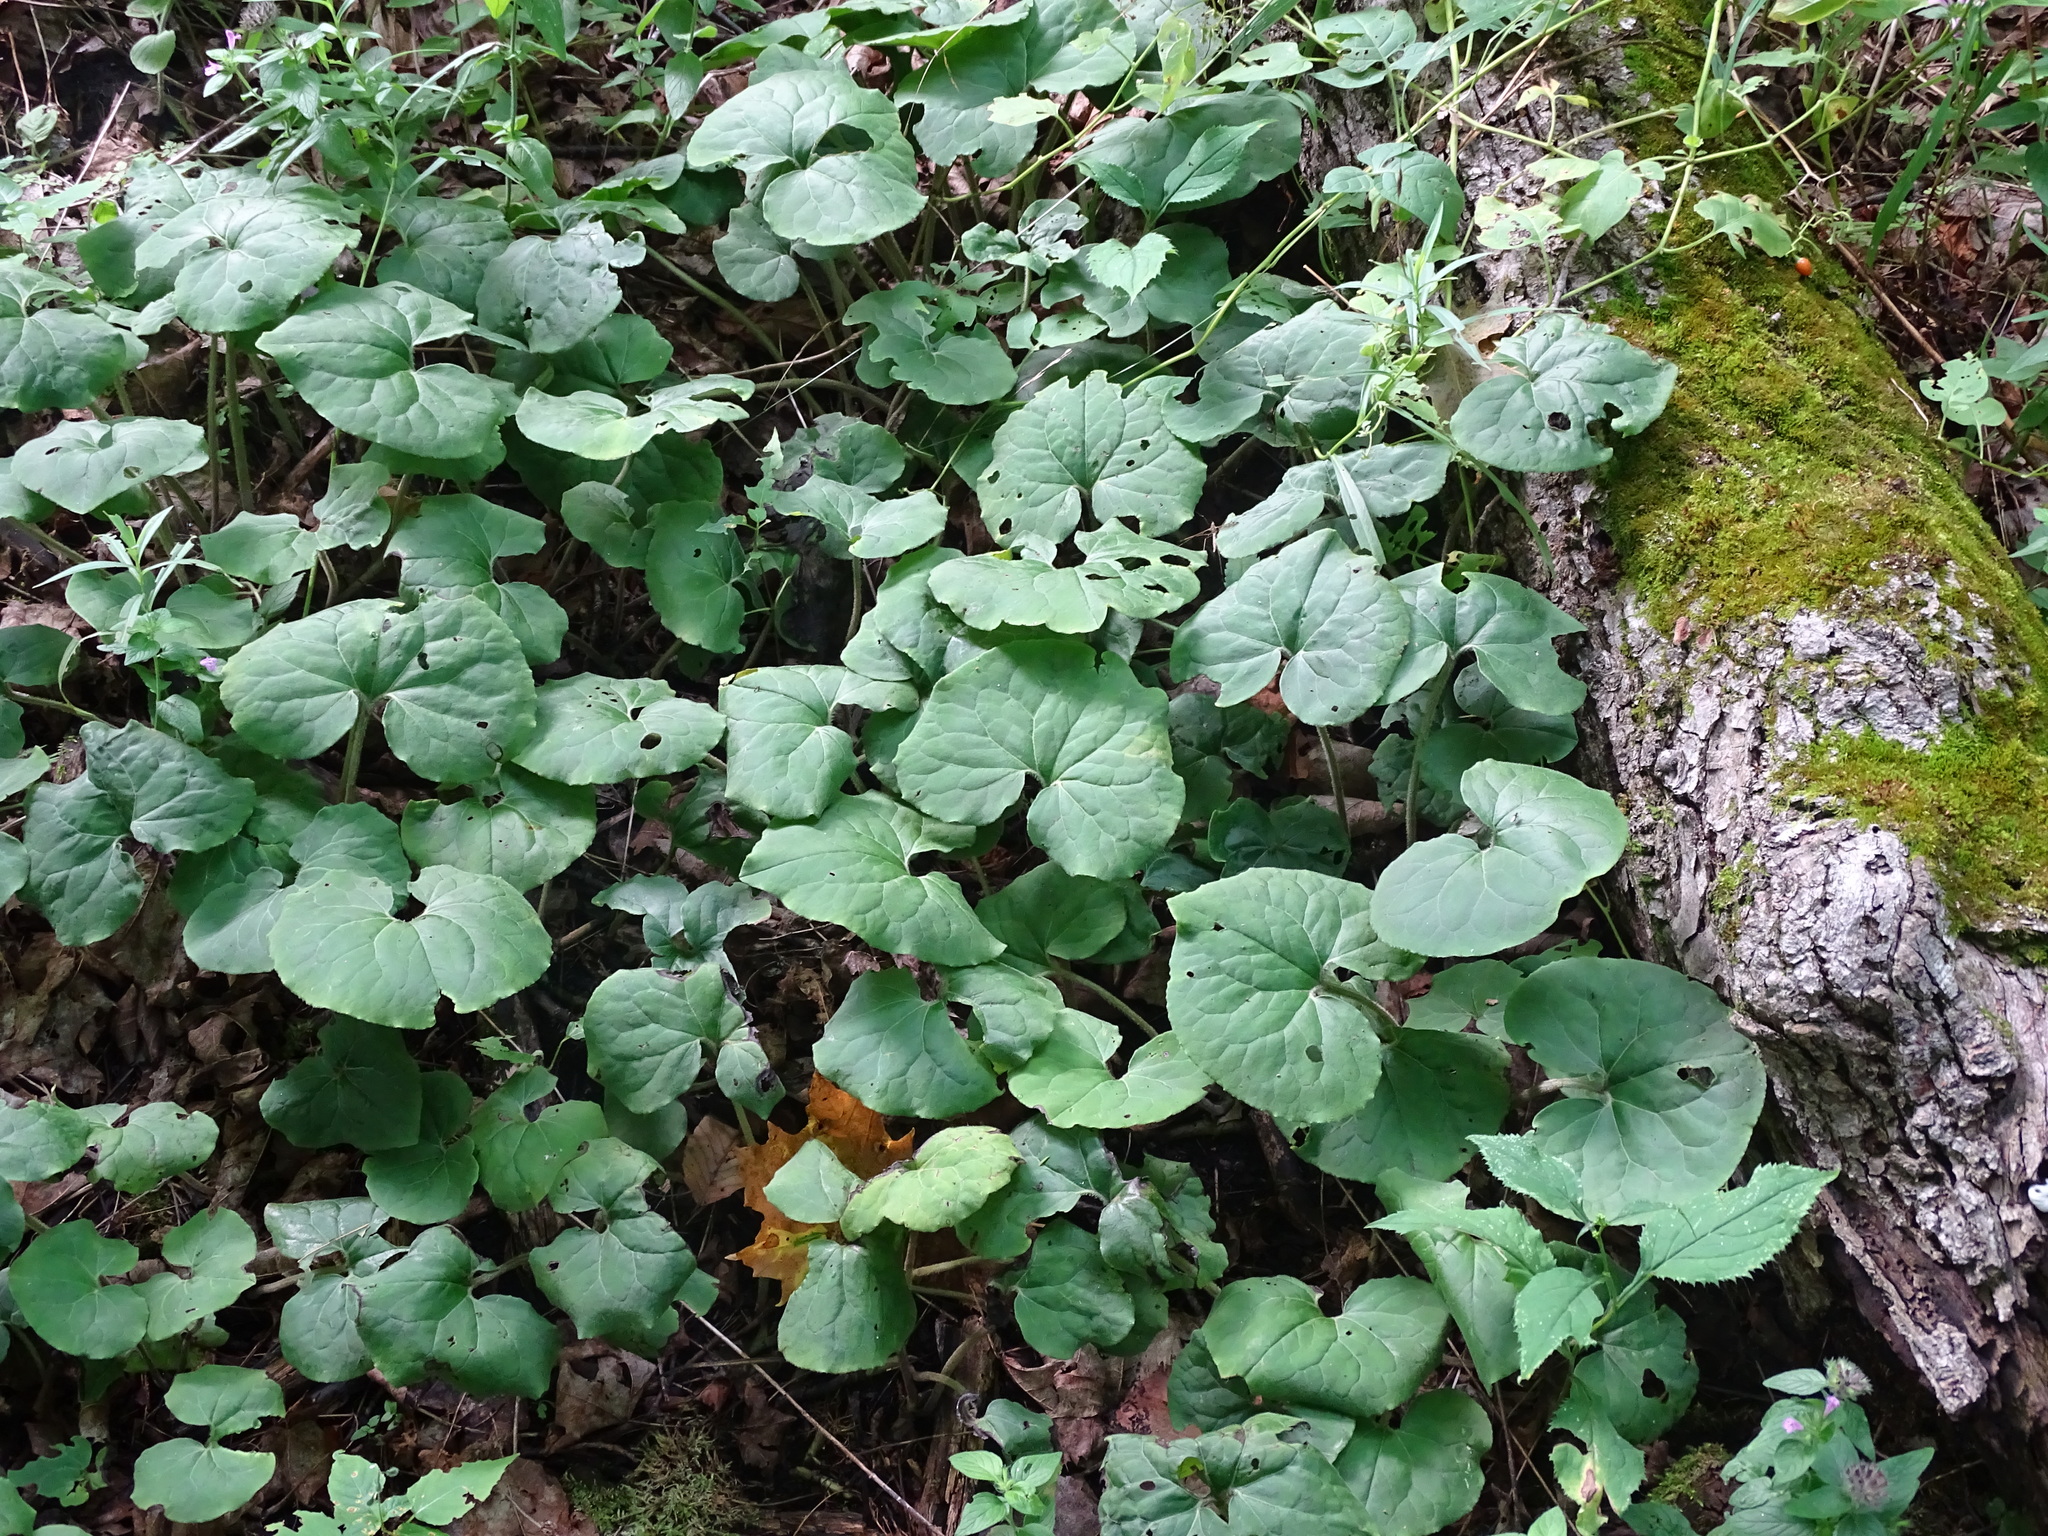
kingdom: Plantae
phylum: Tracheophyta
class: Magnoliopsida
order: Piperales
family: Aristolochiaceae
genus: Asarum
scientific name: Asarum canadense
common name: Wild ginger
